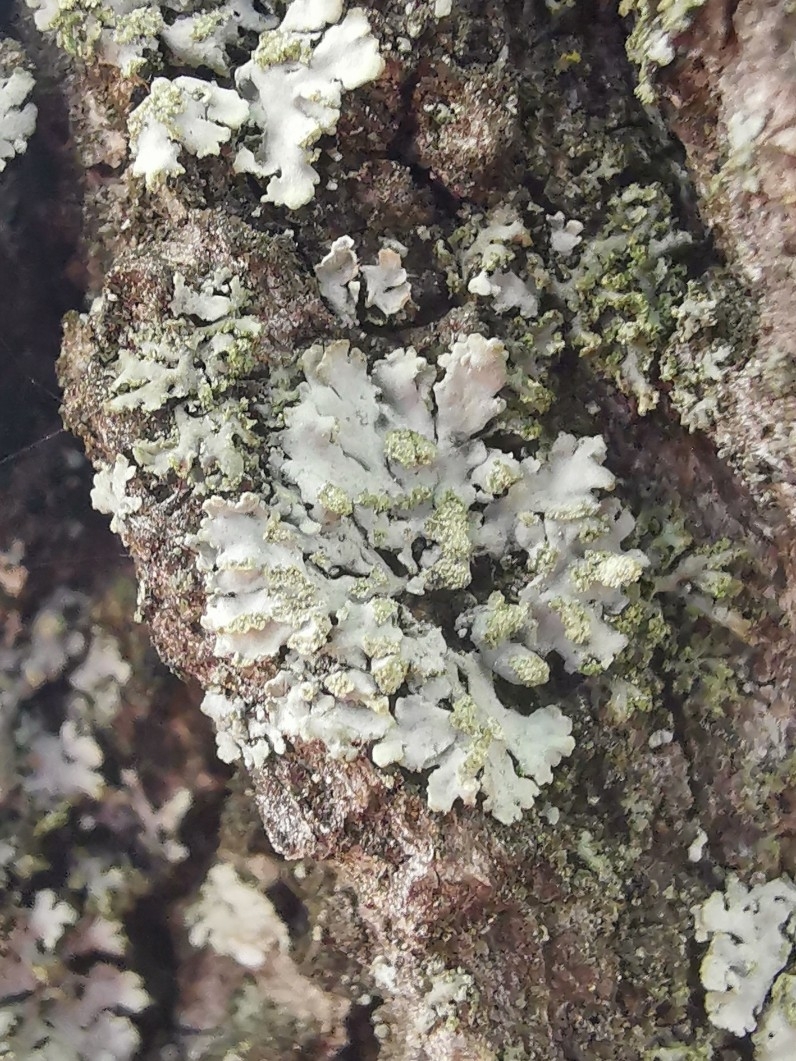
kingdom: Fungi
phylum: Ascomycota
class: Lecanoromycetes
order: Caliciales
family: Physciaceae
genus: Phaeophyscia
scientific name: Phaeophyscia orbicularis
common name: Mealy shadow lichen
